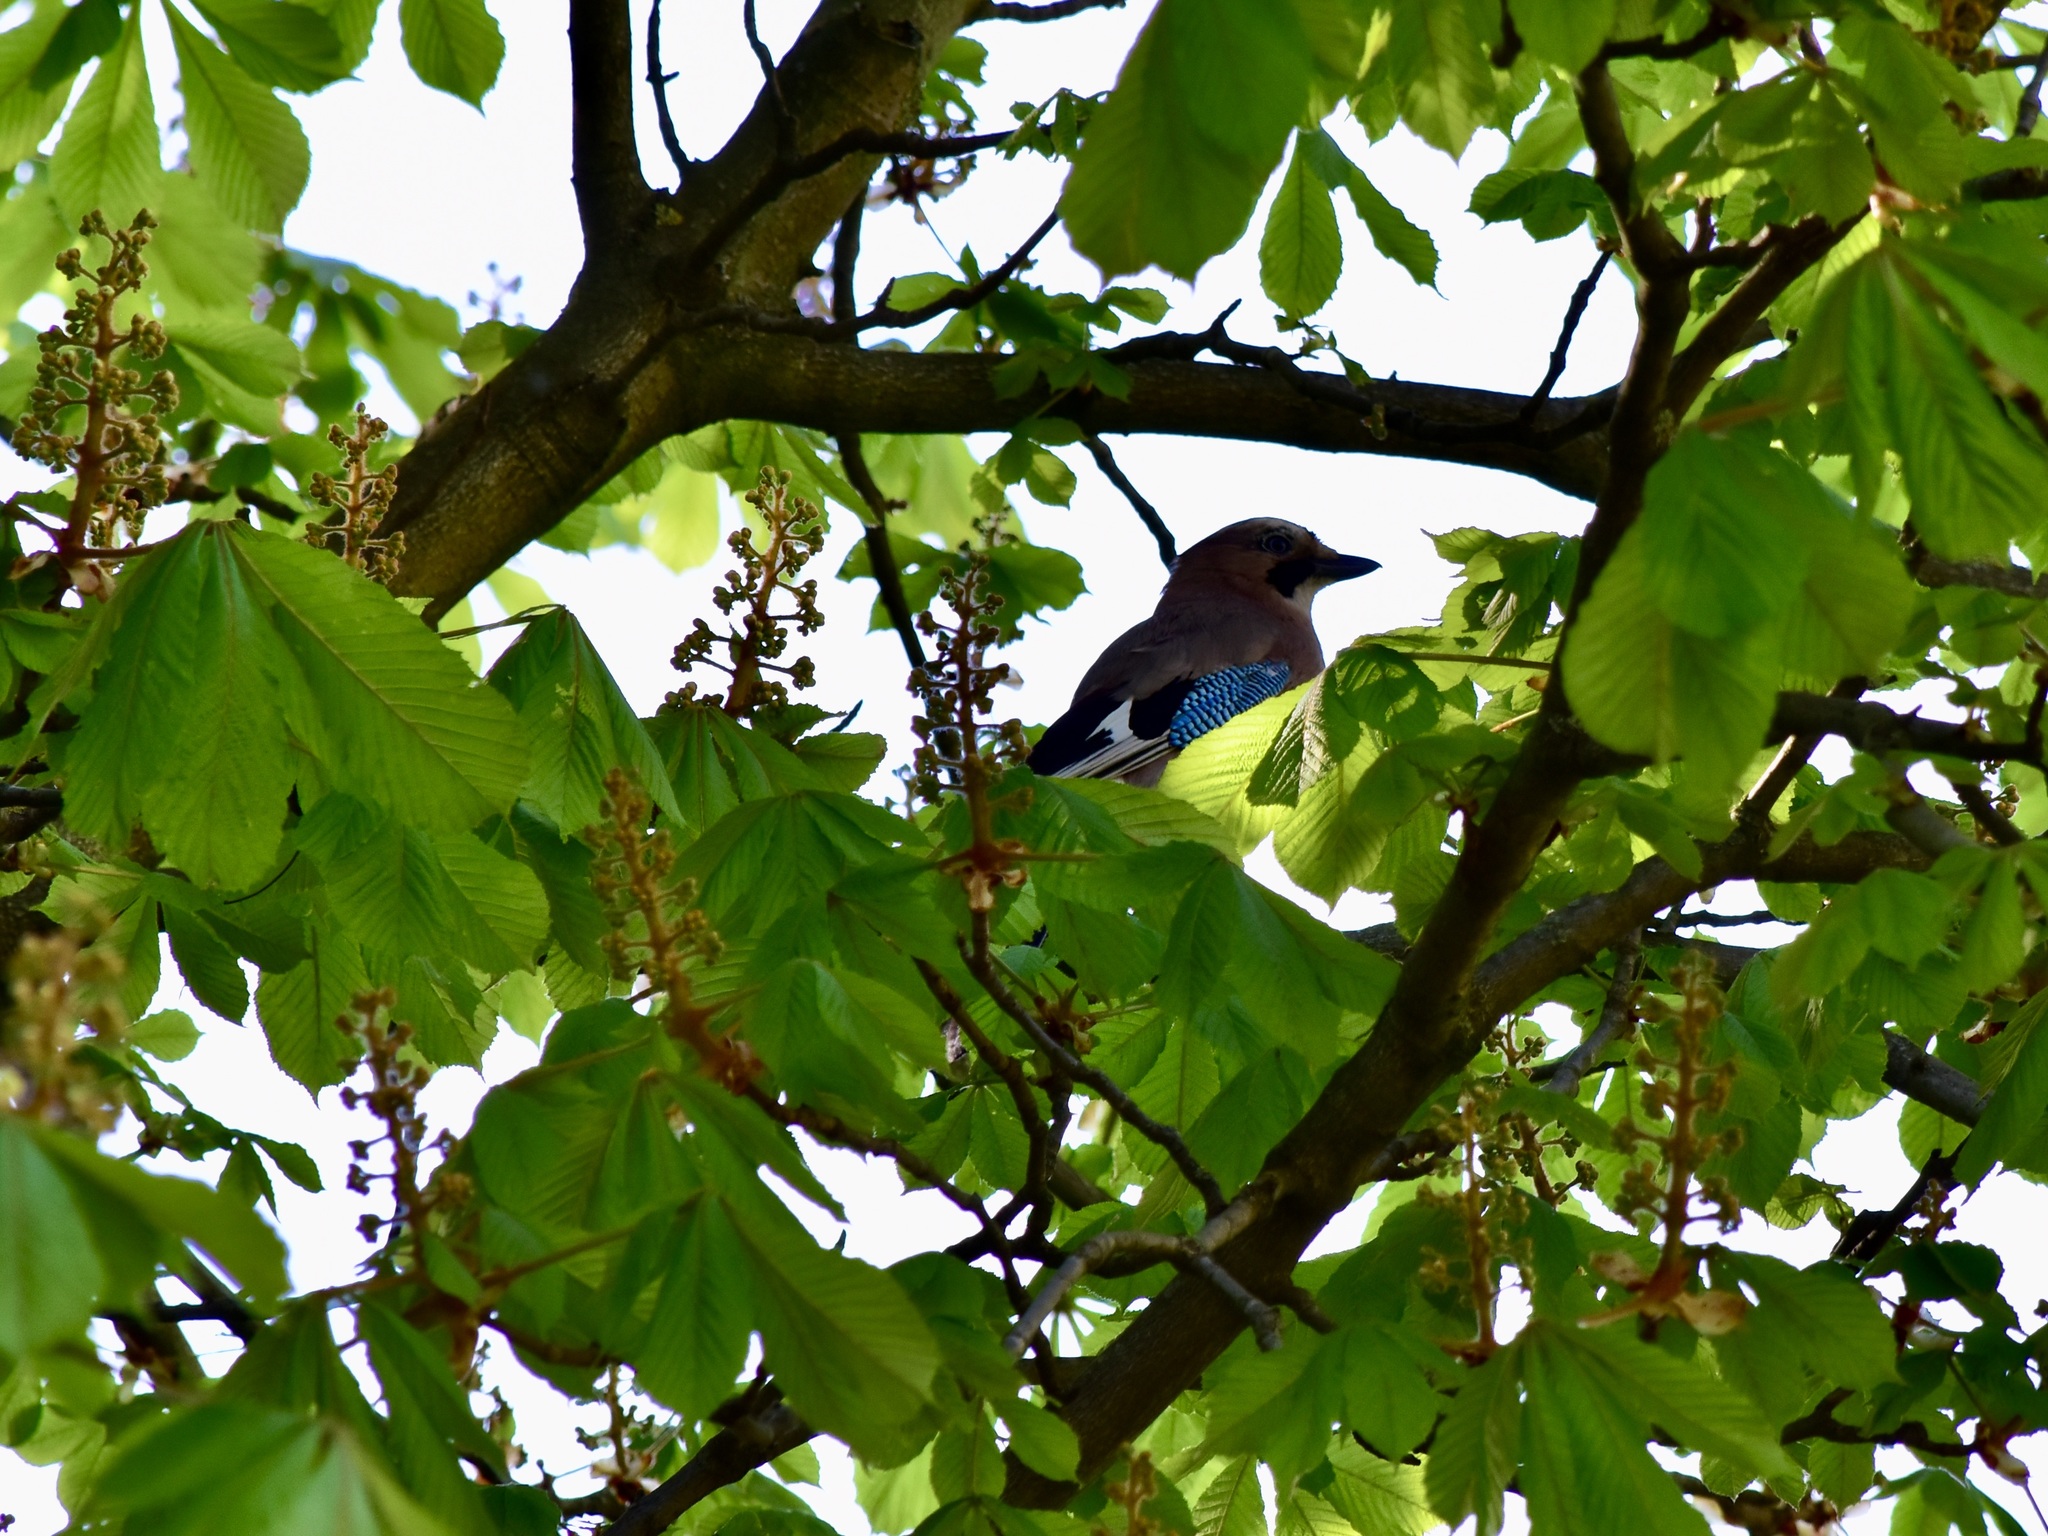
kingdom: Animalia
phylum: Chordata
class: Aves
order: Passeriformes
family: Corvidae
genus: Garrulus
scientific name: Garrulus glandarius
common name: Eurasian jay
